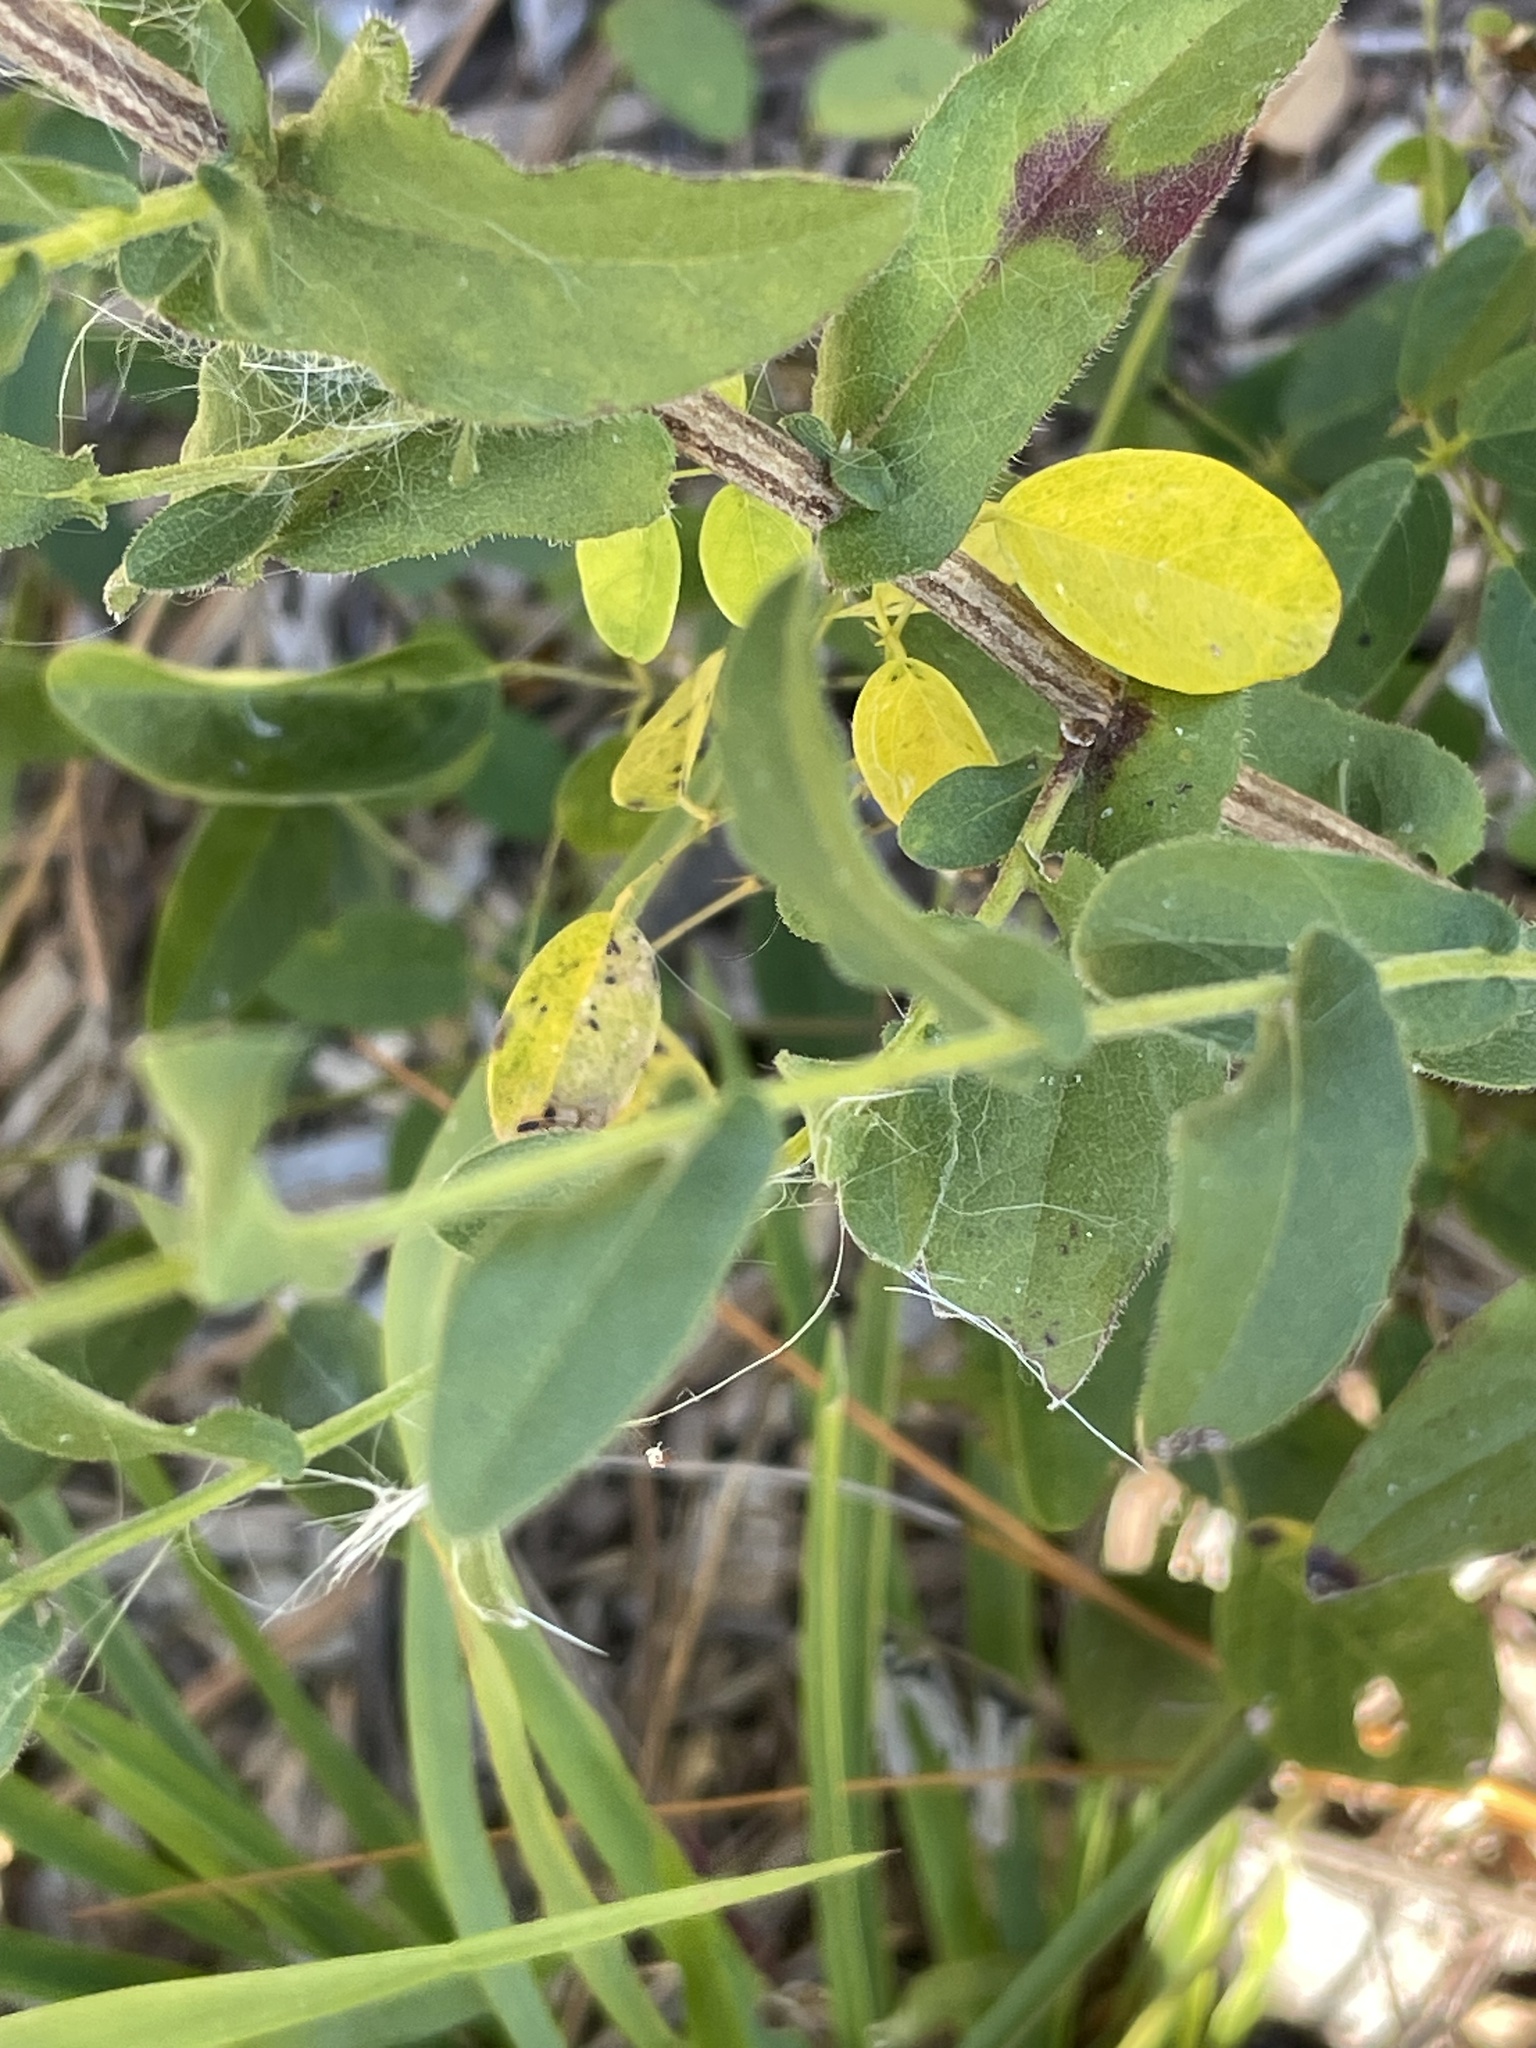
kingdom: Plantae
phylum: Tracheophyta
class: Magnoliopsida
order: Asterales
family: Asteraceae
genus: Symphyotrichum
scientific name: Symphyotrichum patens
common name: Late purple aster
